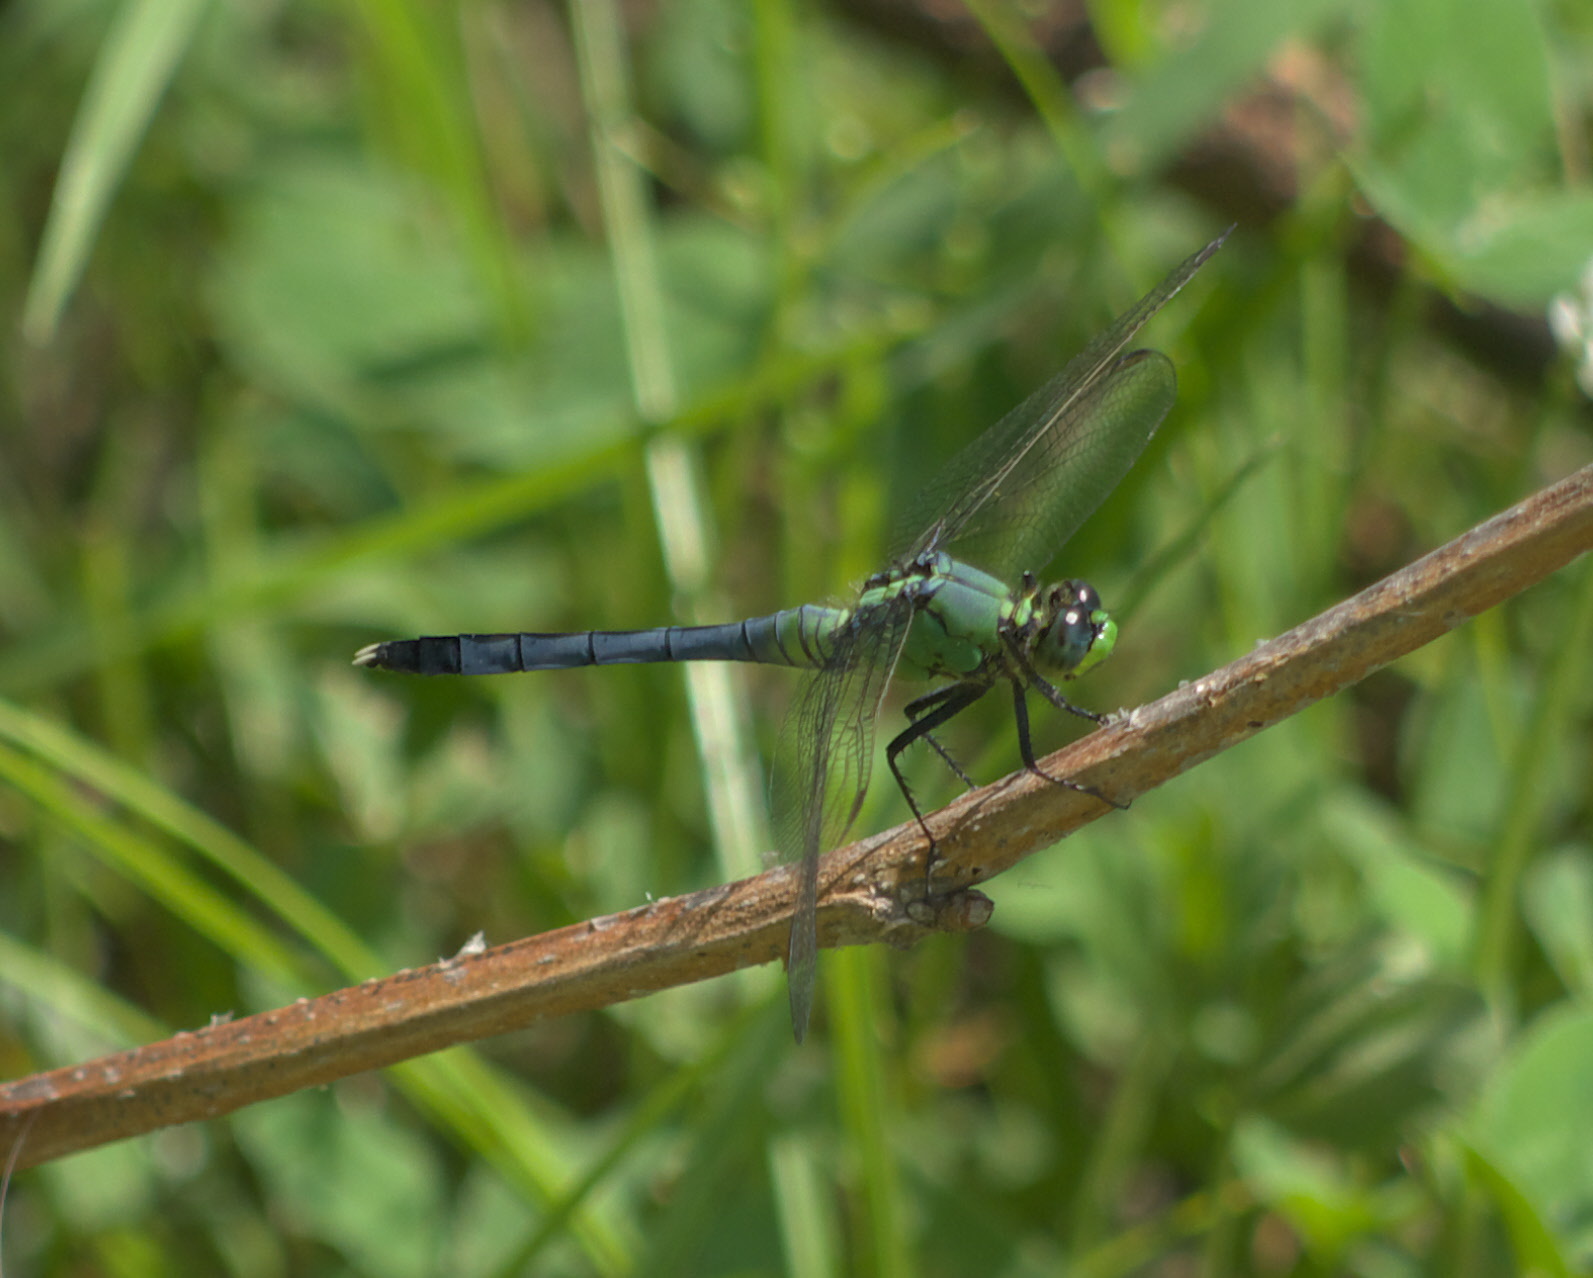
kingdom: Animalia
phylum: Arthropoda
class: Insecta
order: Odonata
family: Libellulidae
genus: Erythemis
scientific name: Erythemis simplicicollis
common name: Eastern pondhawk
